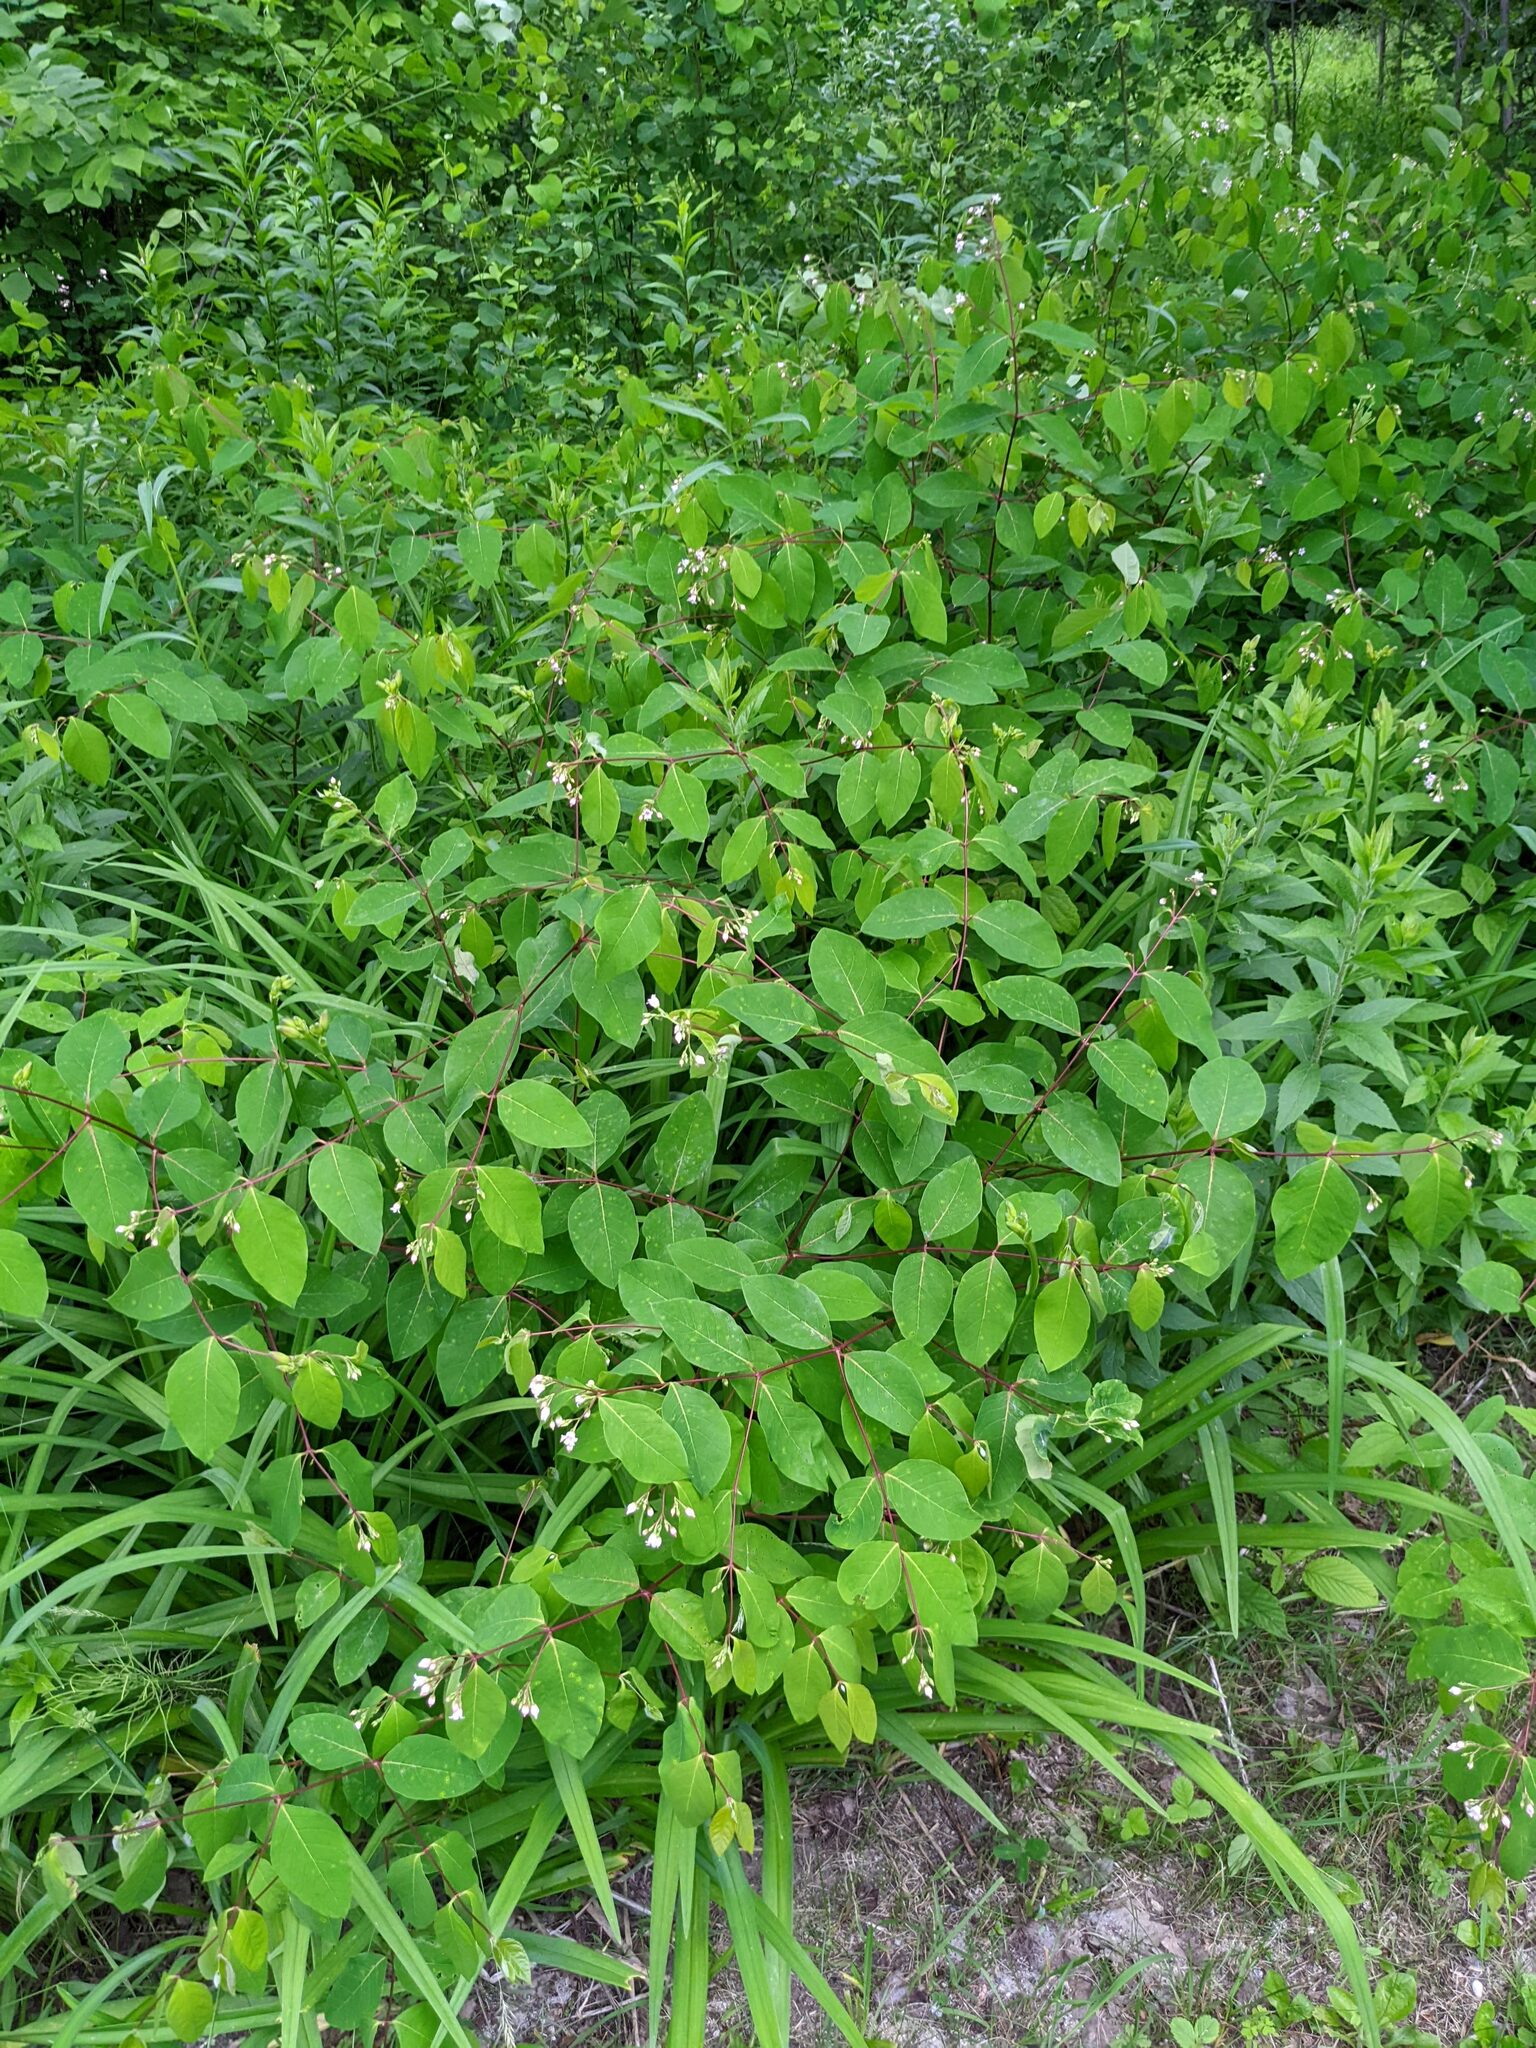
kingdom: Plantae
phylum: Tracheophyta
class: Magnoliopsida
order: Gentianales
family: Apocynaceae
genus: Apocynum
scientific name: Apocynum androsaemifolium
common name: Spreading dogbane
